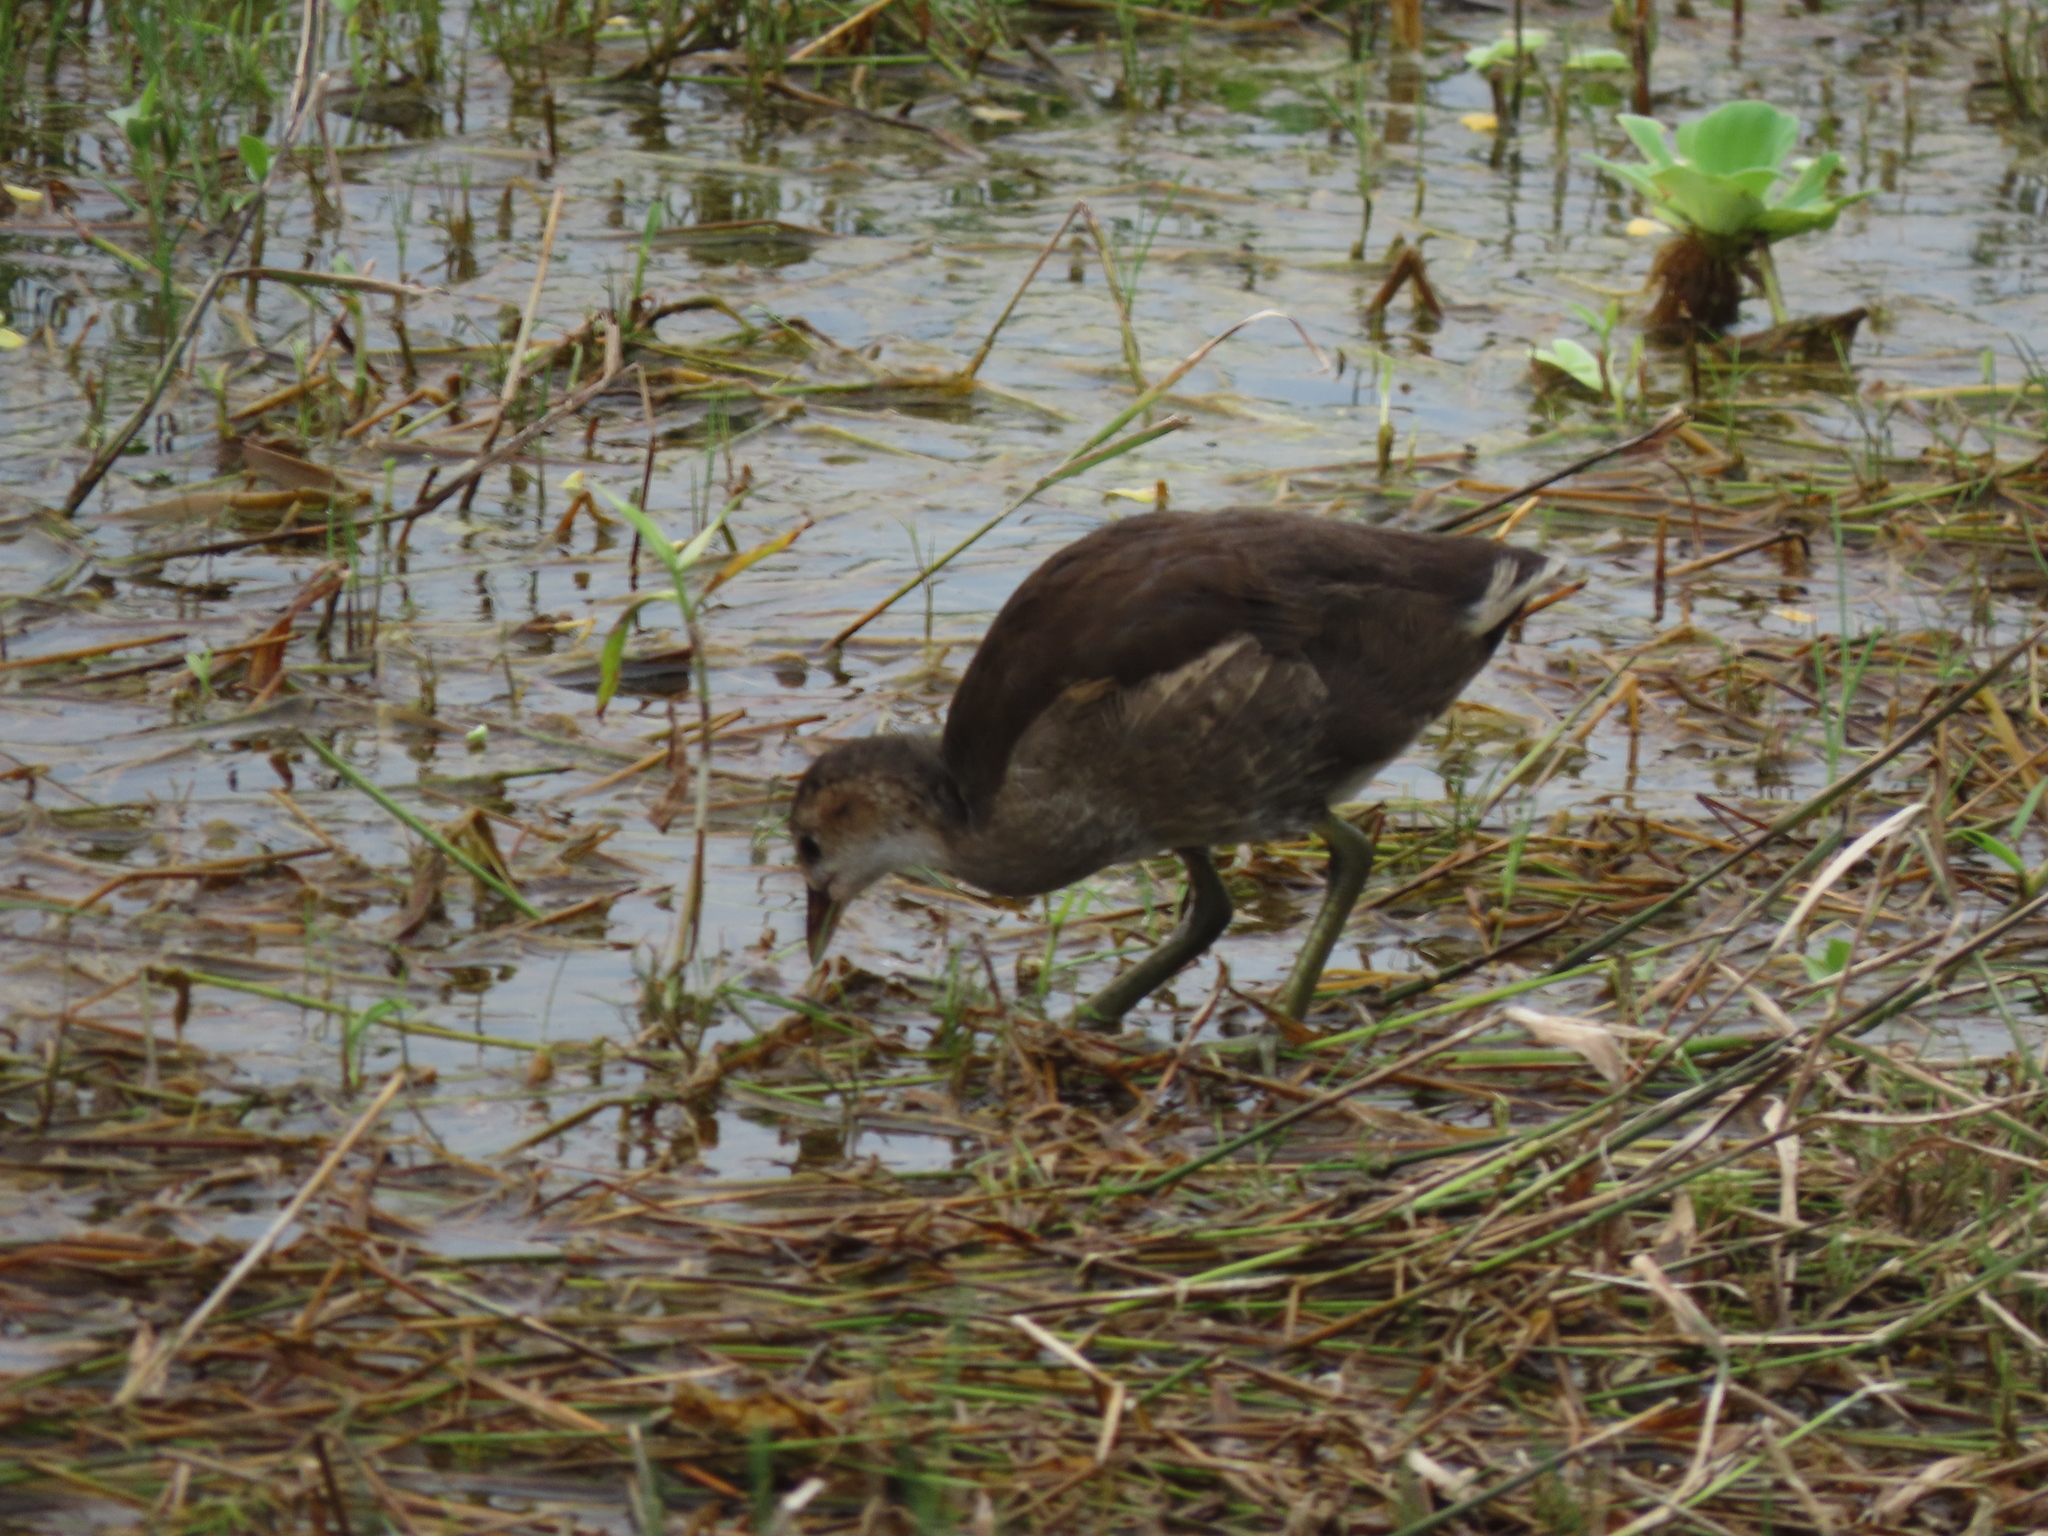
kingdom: Animalia
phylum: Chordata
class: Aves
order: Gruiformes
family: Rallidae
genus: Gallinula
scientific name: Gallinula chloropus
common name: Common moorhen
